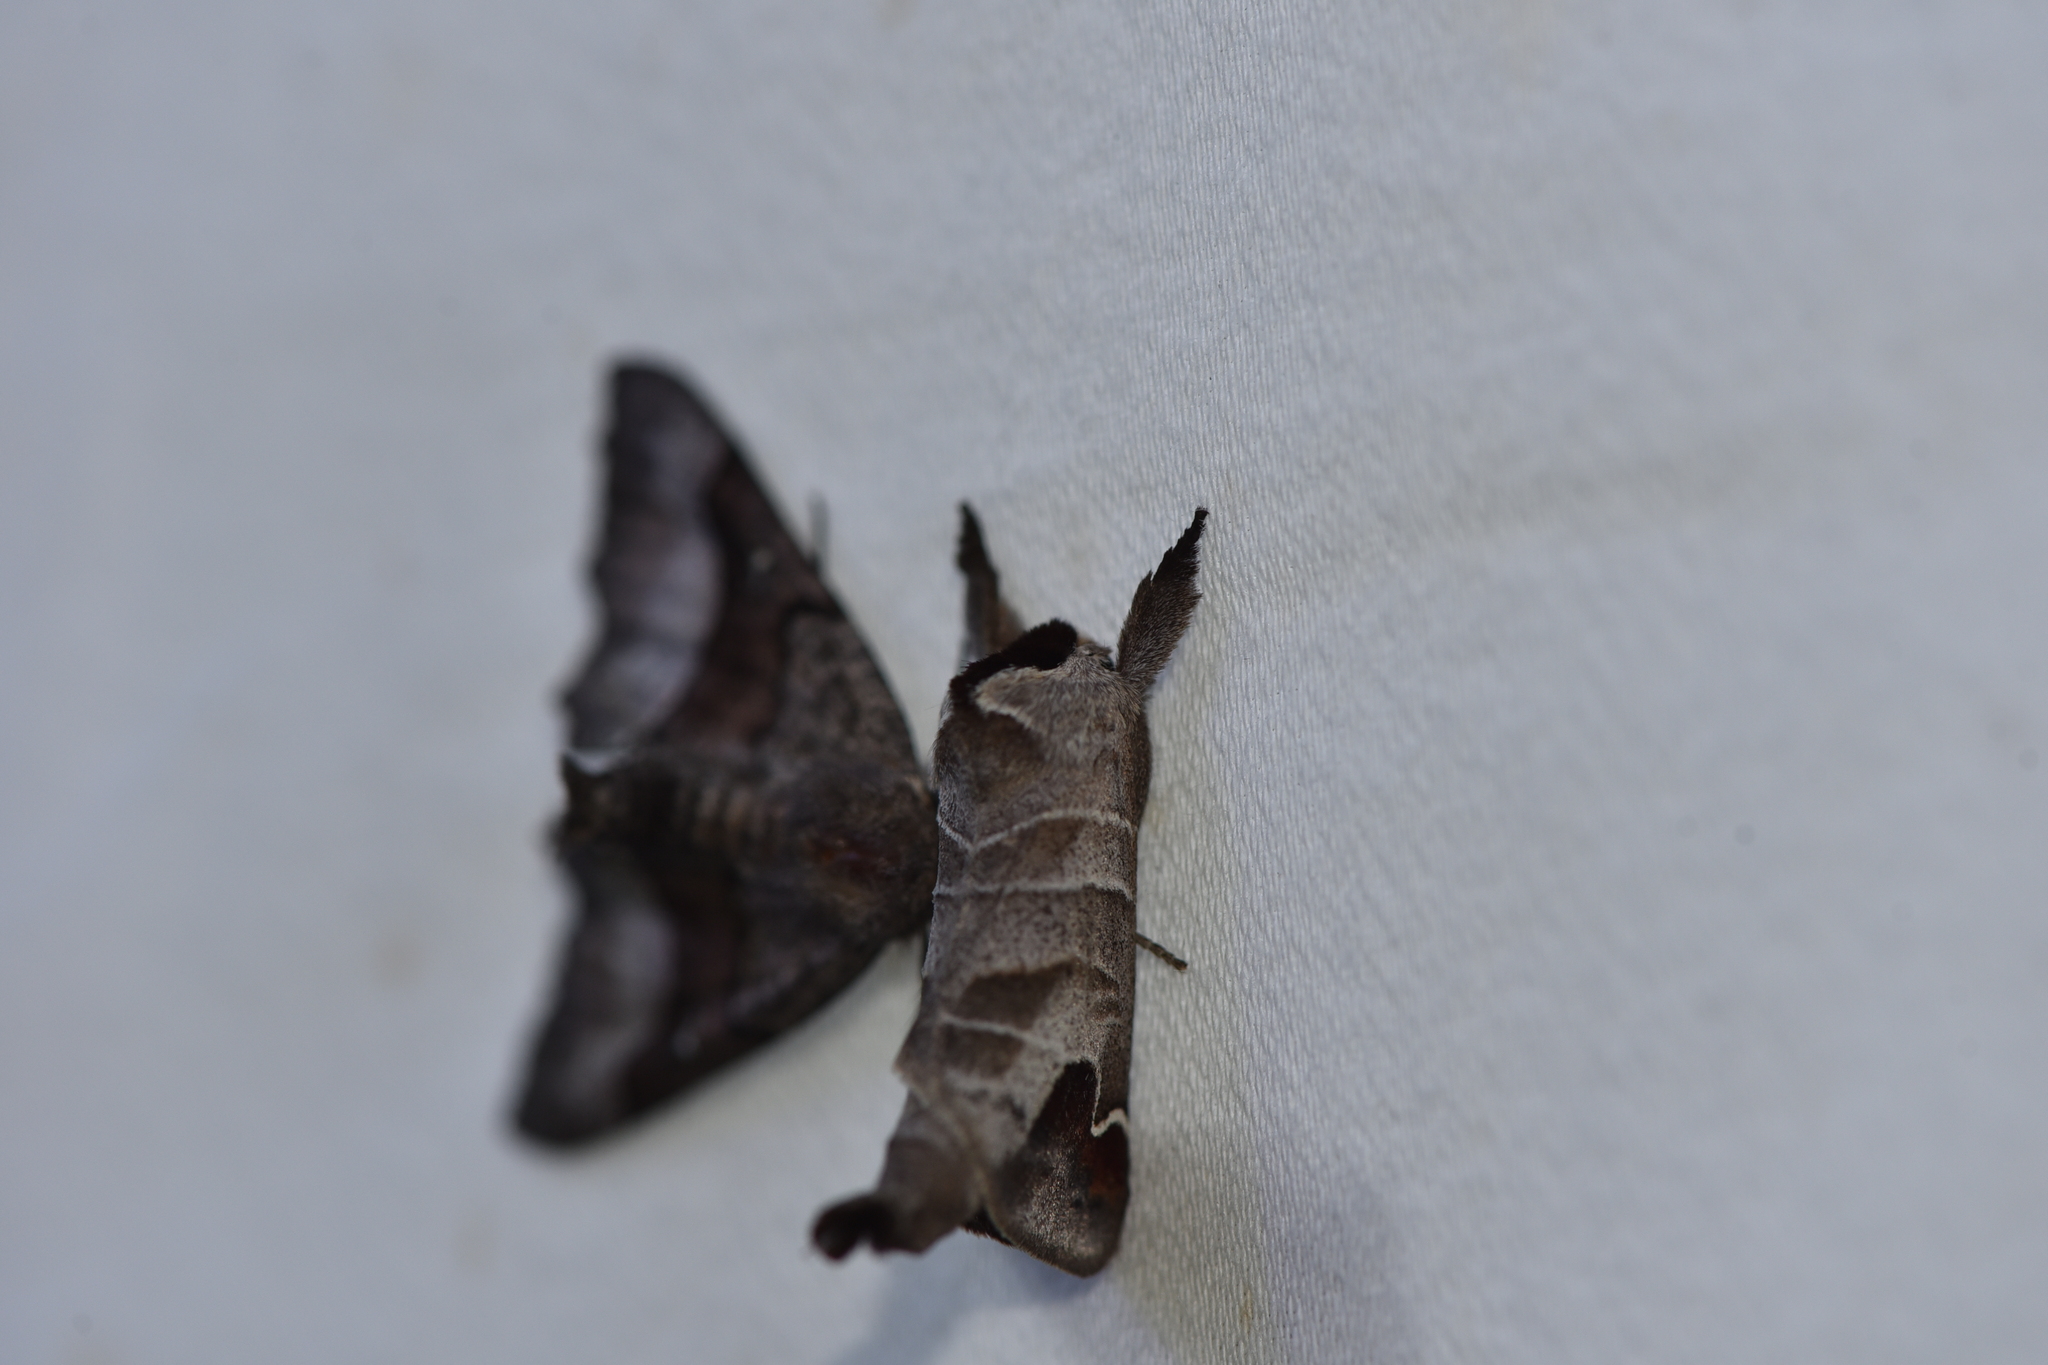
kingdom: Animalia
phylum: Arthropoda
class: Insecta
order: Lepidoptera
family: Notodontidae
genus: Clostera
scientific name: Clostera albosigma
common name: Sigmoid prominent
